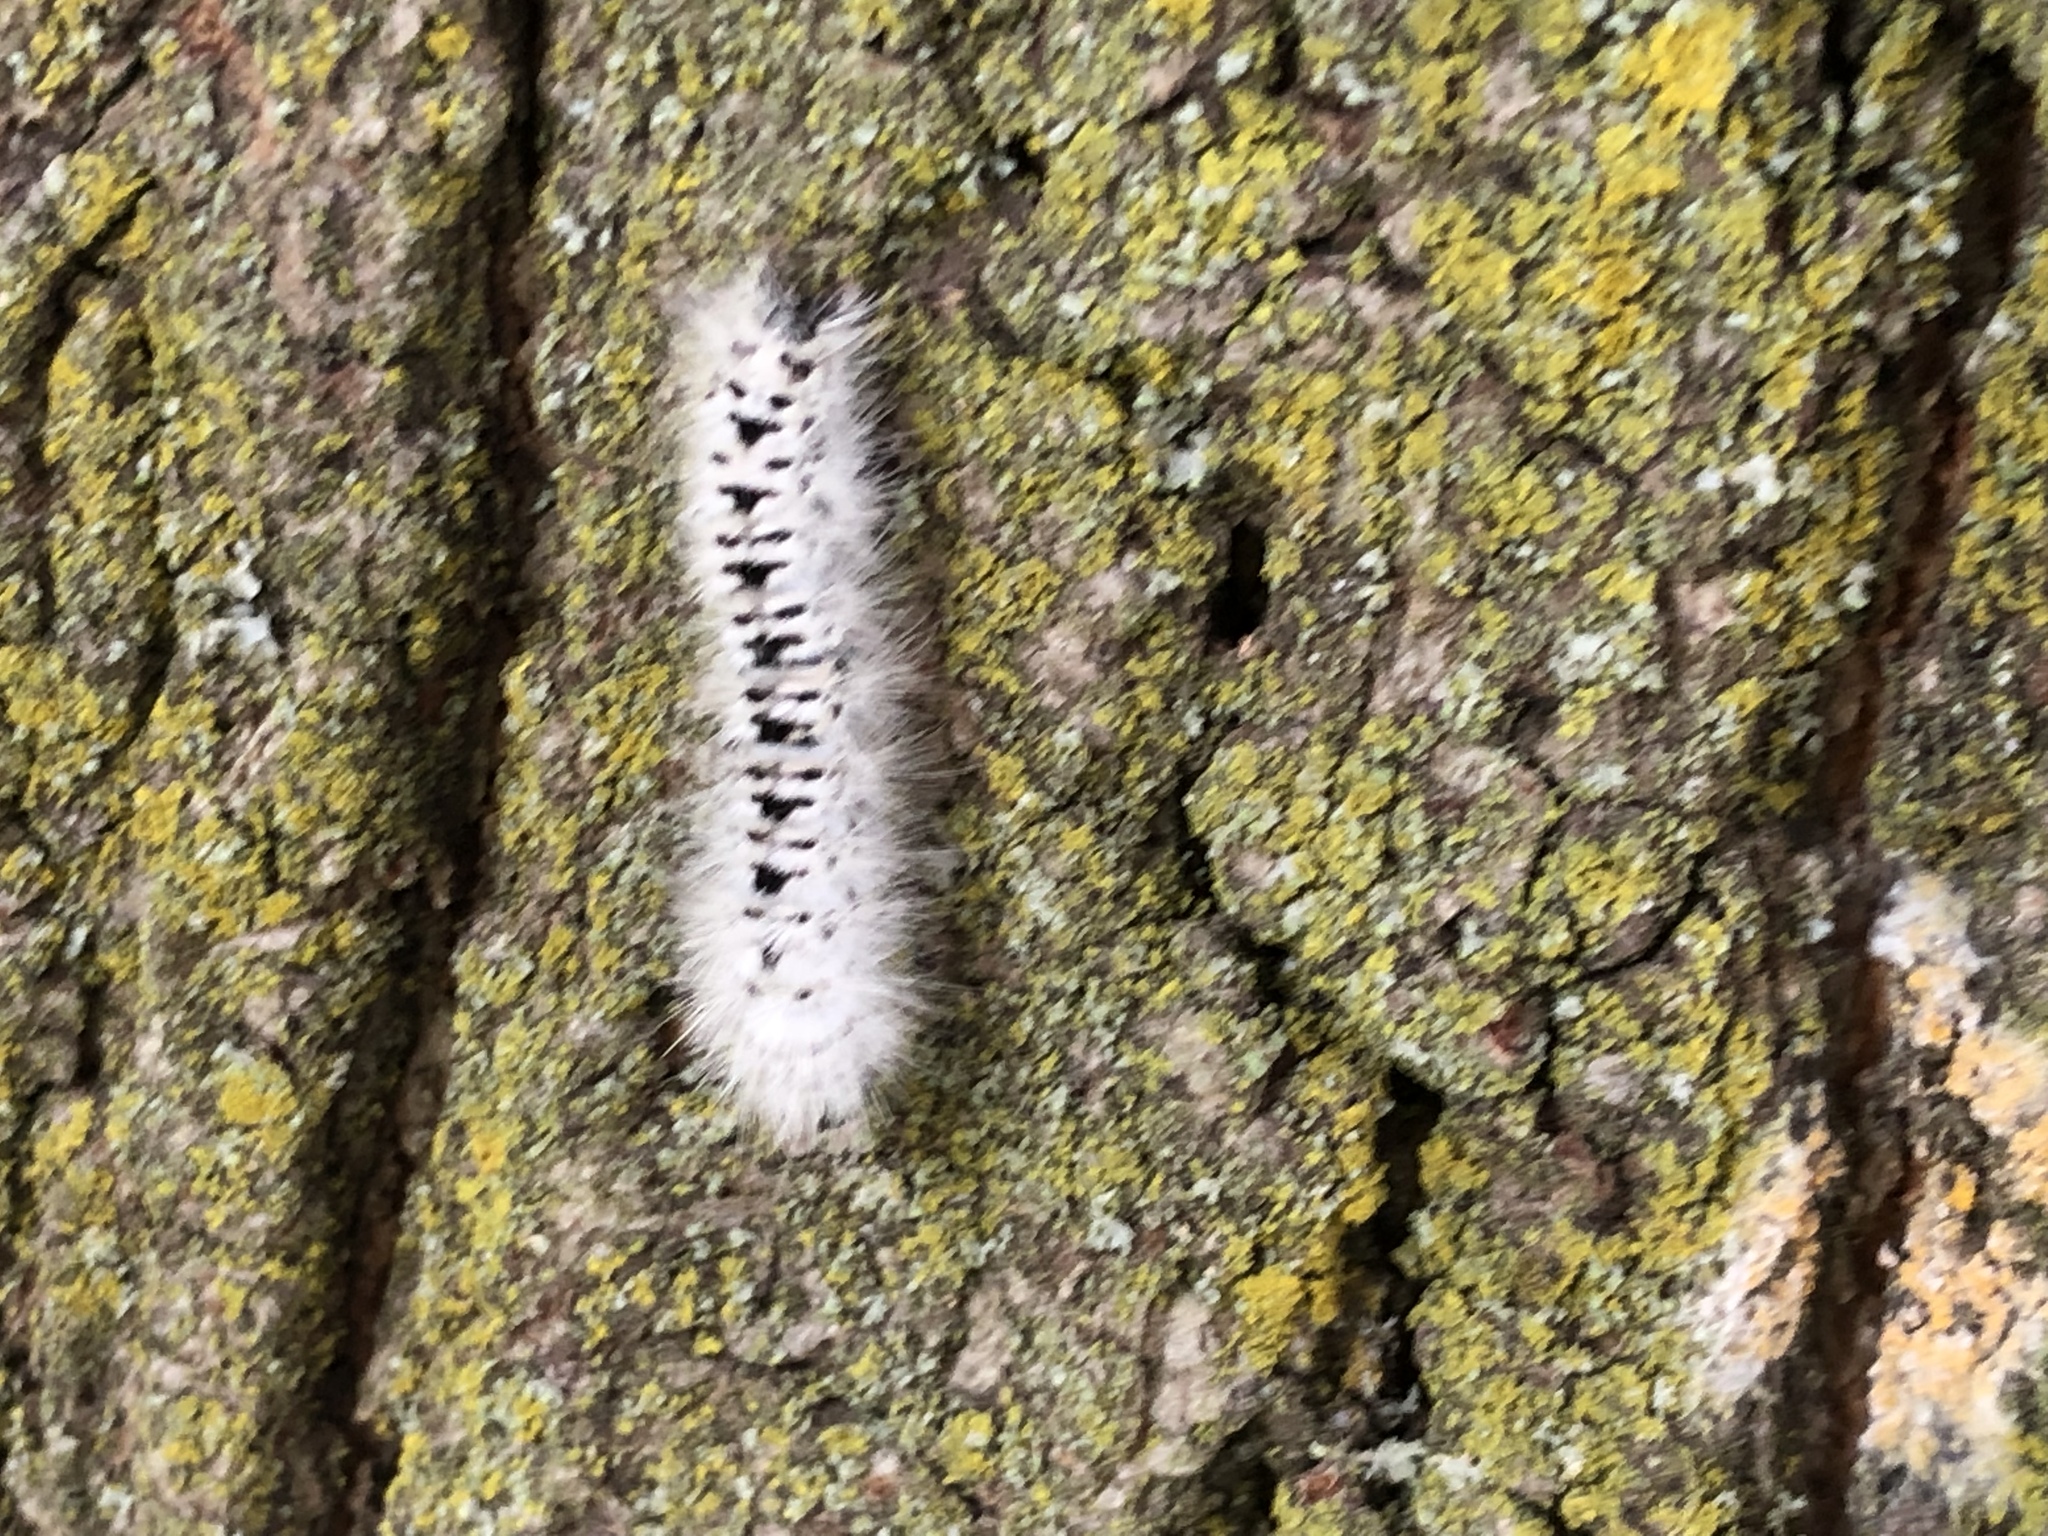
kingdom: Animalia
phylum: Arthropoda
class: Insecta
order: Lepidoptera
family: Erebidae
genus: Lophocampa
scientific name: Lophocampa caryae
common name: Hickory tussock moth
